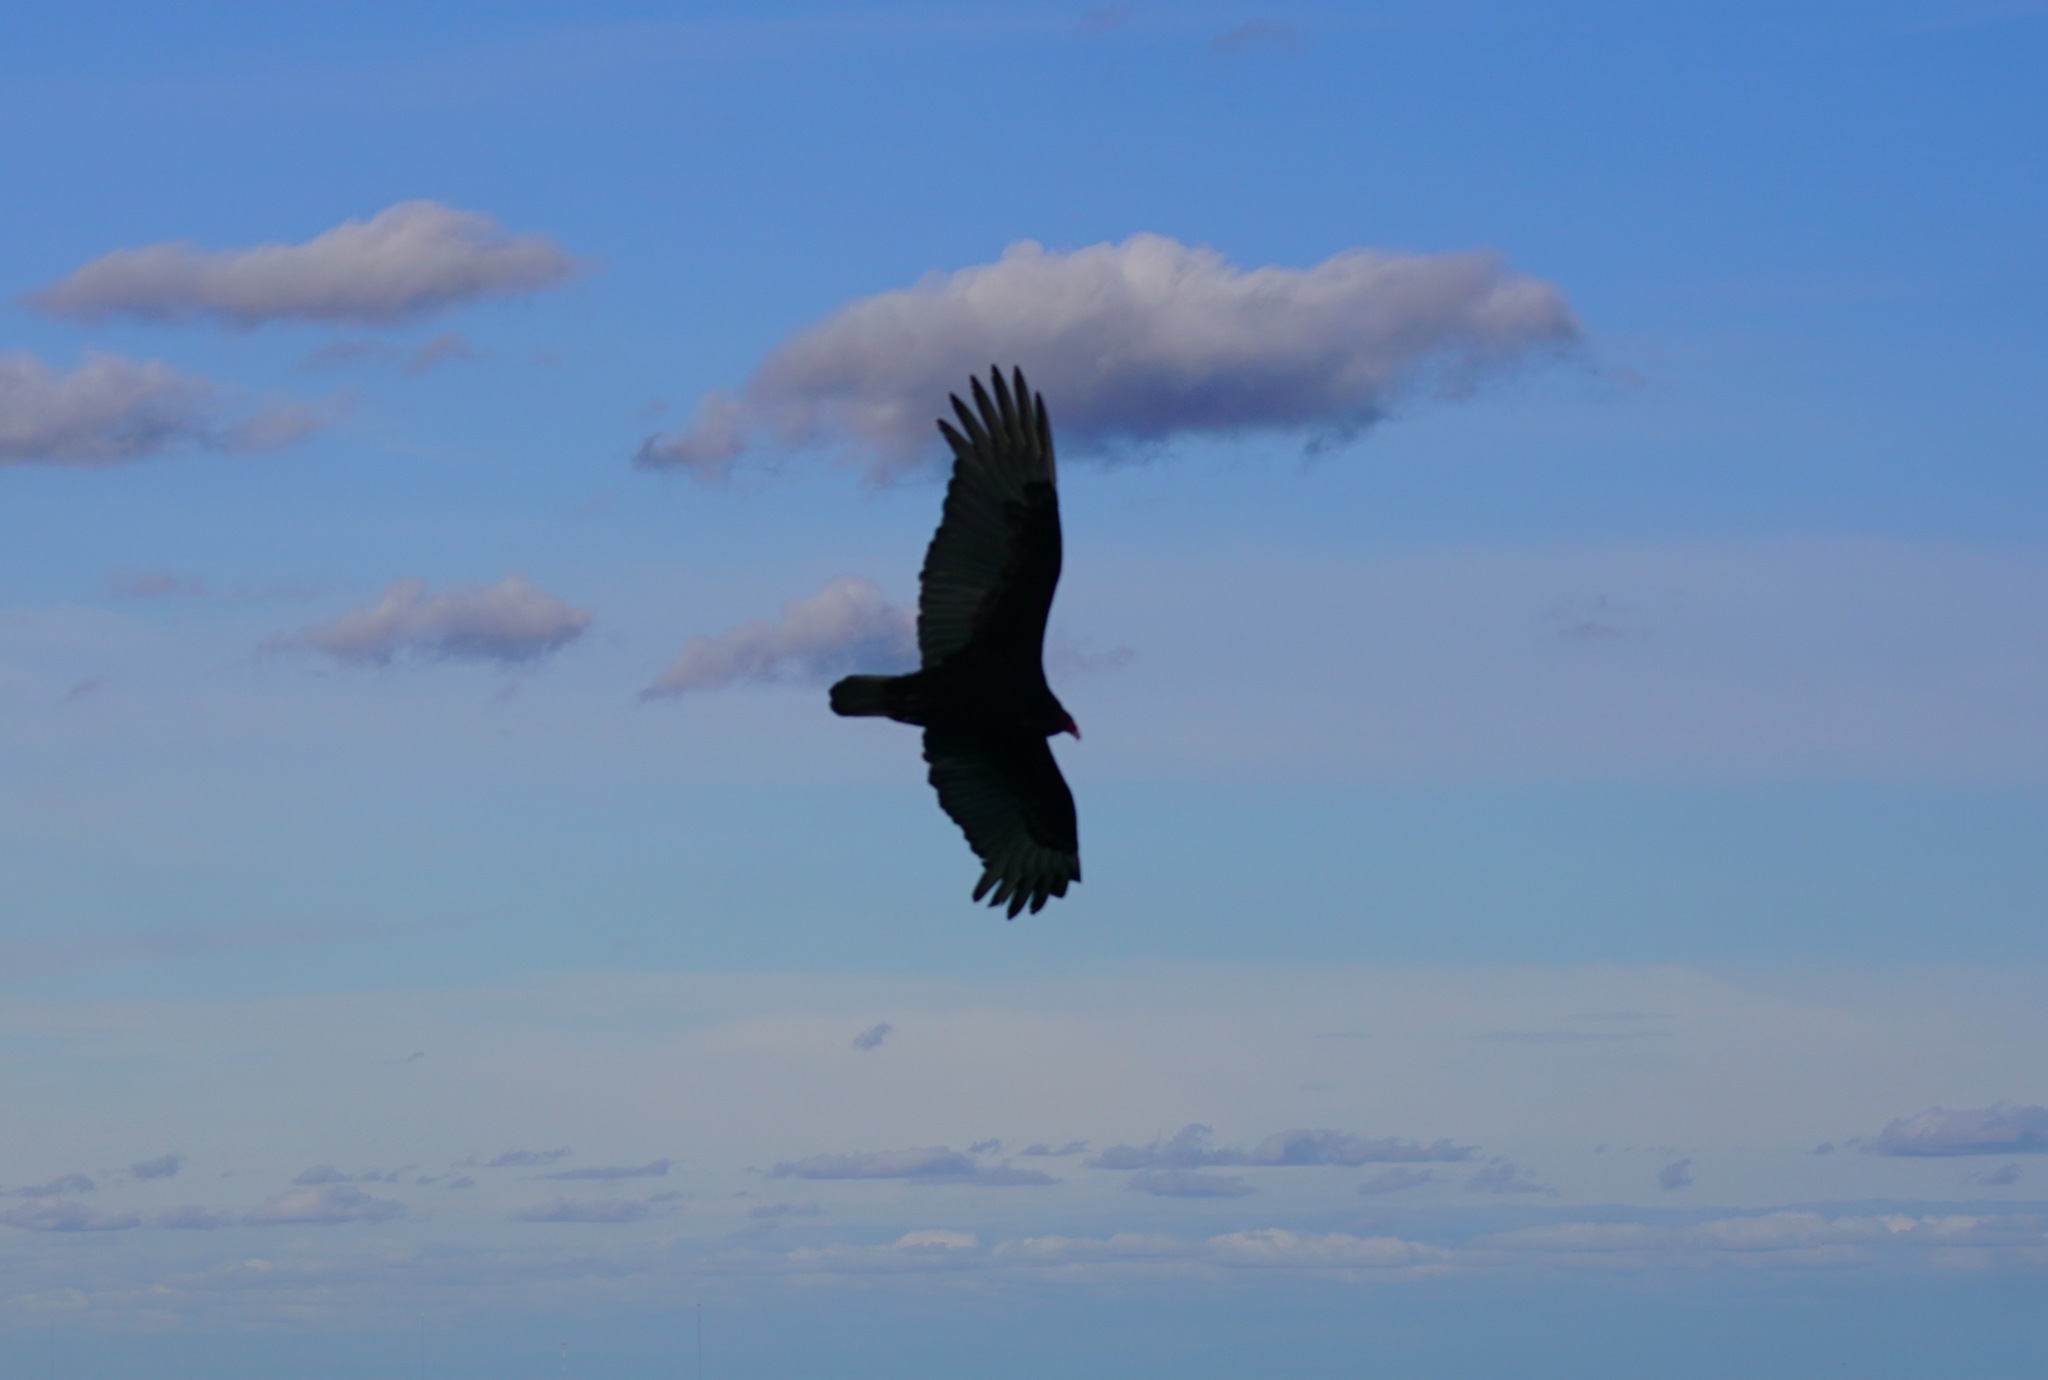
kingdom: Animalia
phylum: Chordata
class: Aves
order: Accipitriformes
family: Cathartidae
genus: Cathartes
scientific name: Cathartes aura
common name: Turkey vulture
